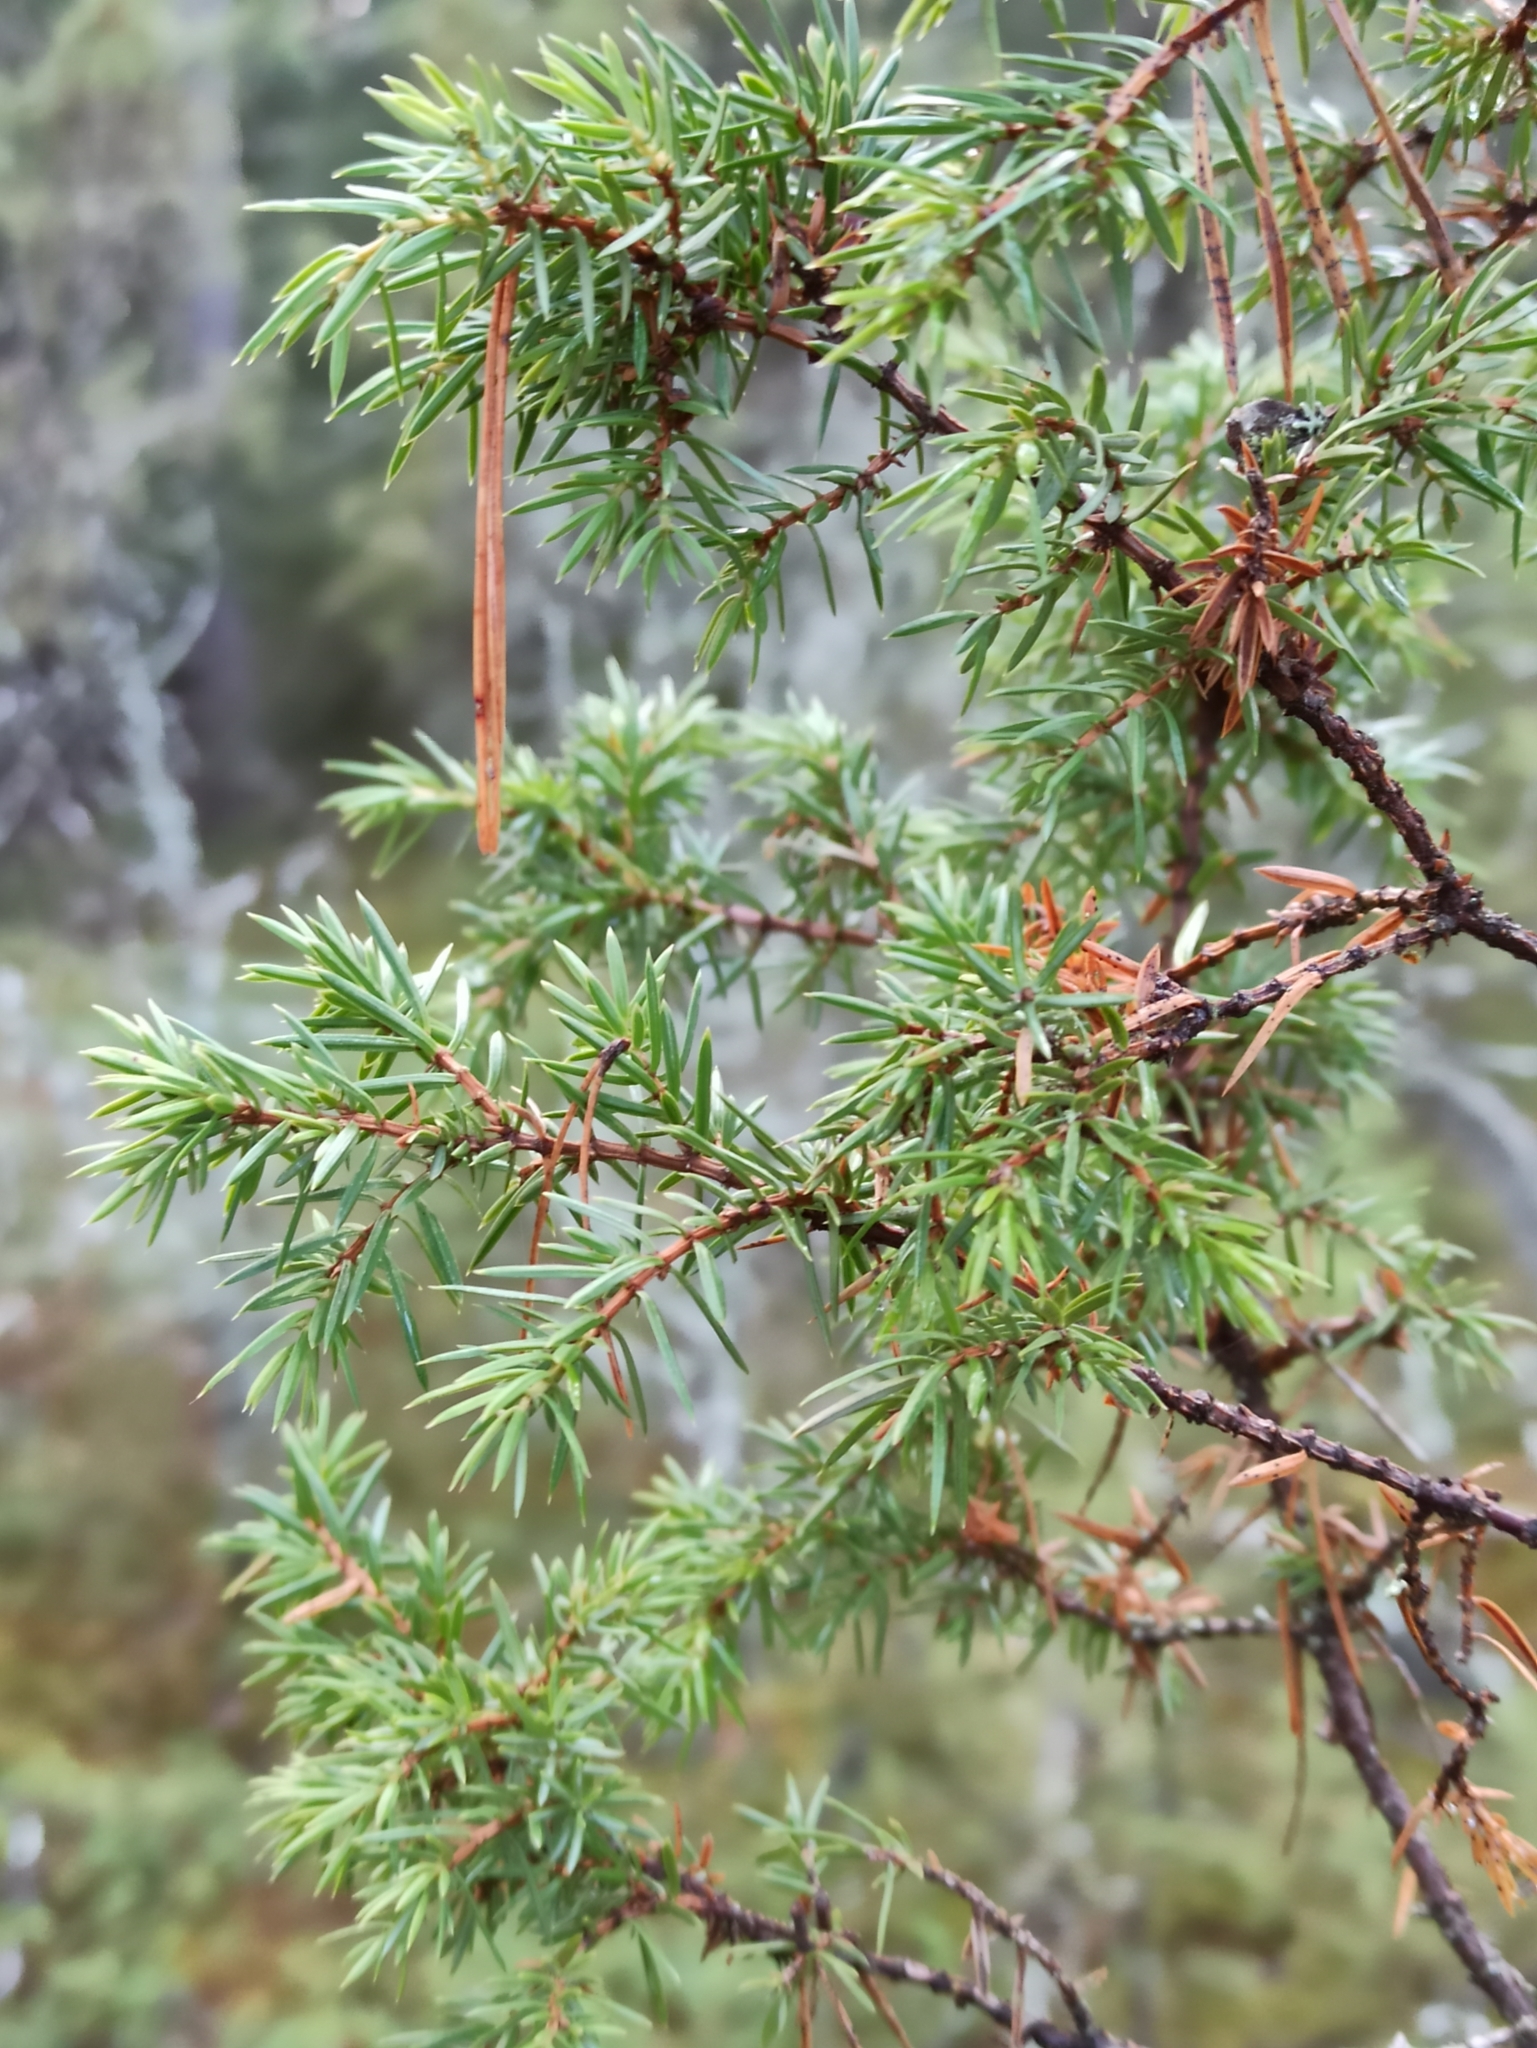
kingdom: Plantae
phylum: Tracheophyta
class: Pinopsida
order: Pinales
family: Cupressaceae
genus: Juniperus
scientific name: Juniperus communis
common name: Common juniper
